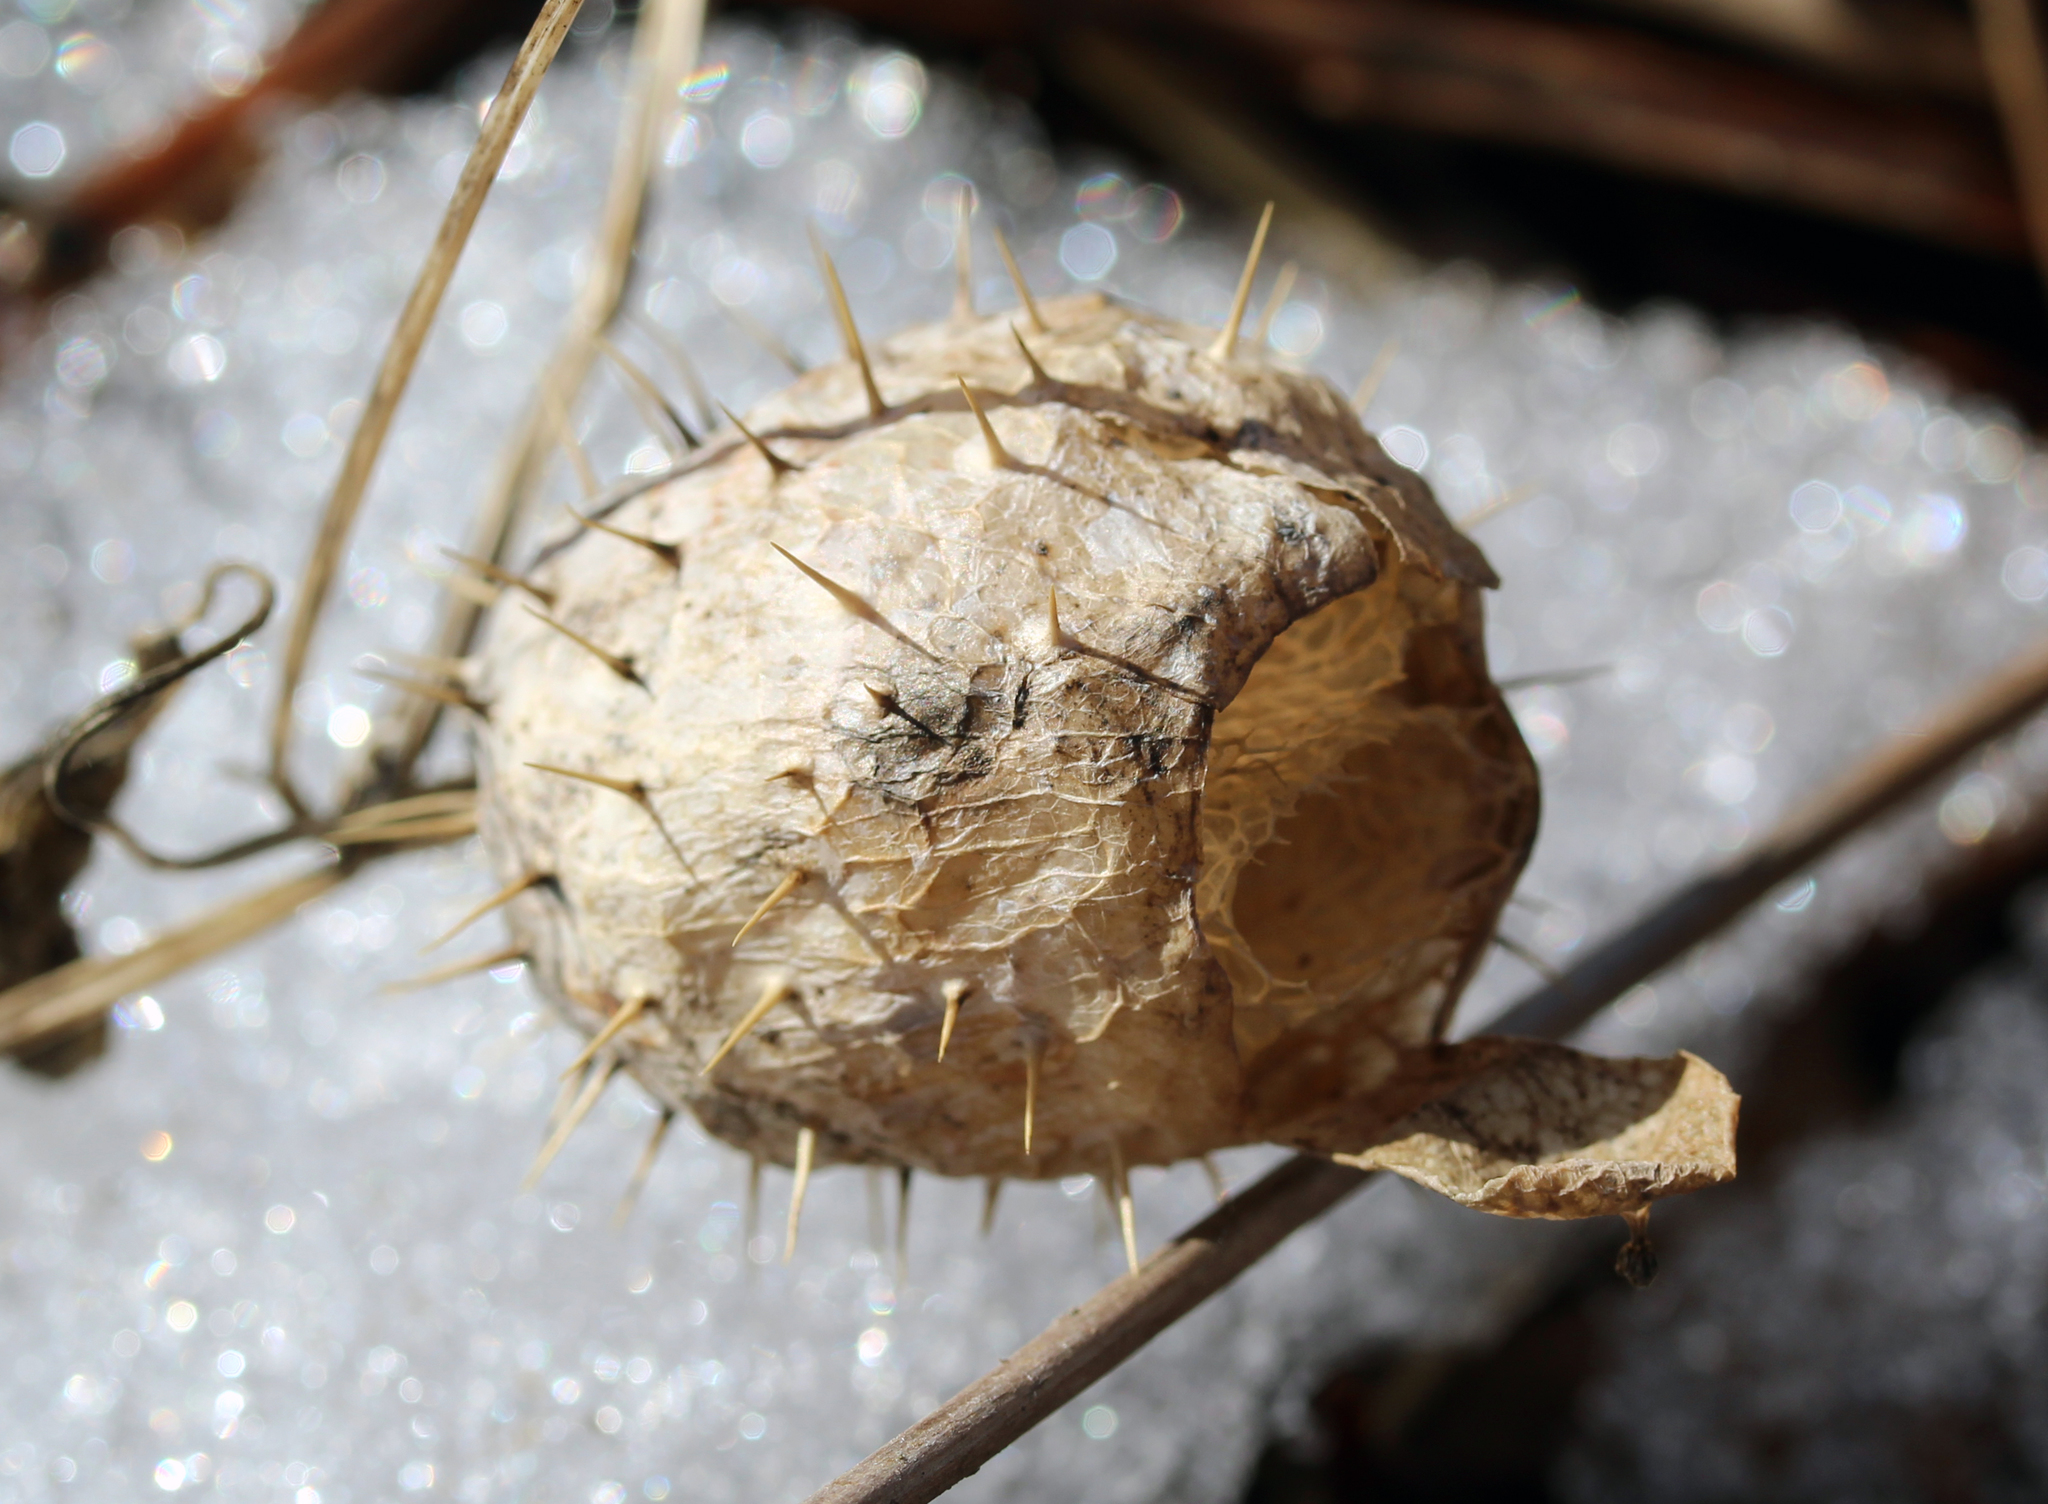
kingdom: Plantae
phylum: Tracheophyta
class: Magnoliopsida
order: Cucurbitales
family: Cucurbitaceae
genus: Echinocystis
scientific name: Echinocystis lobata
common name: Wild cucumber
